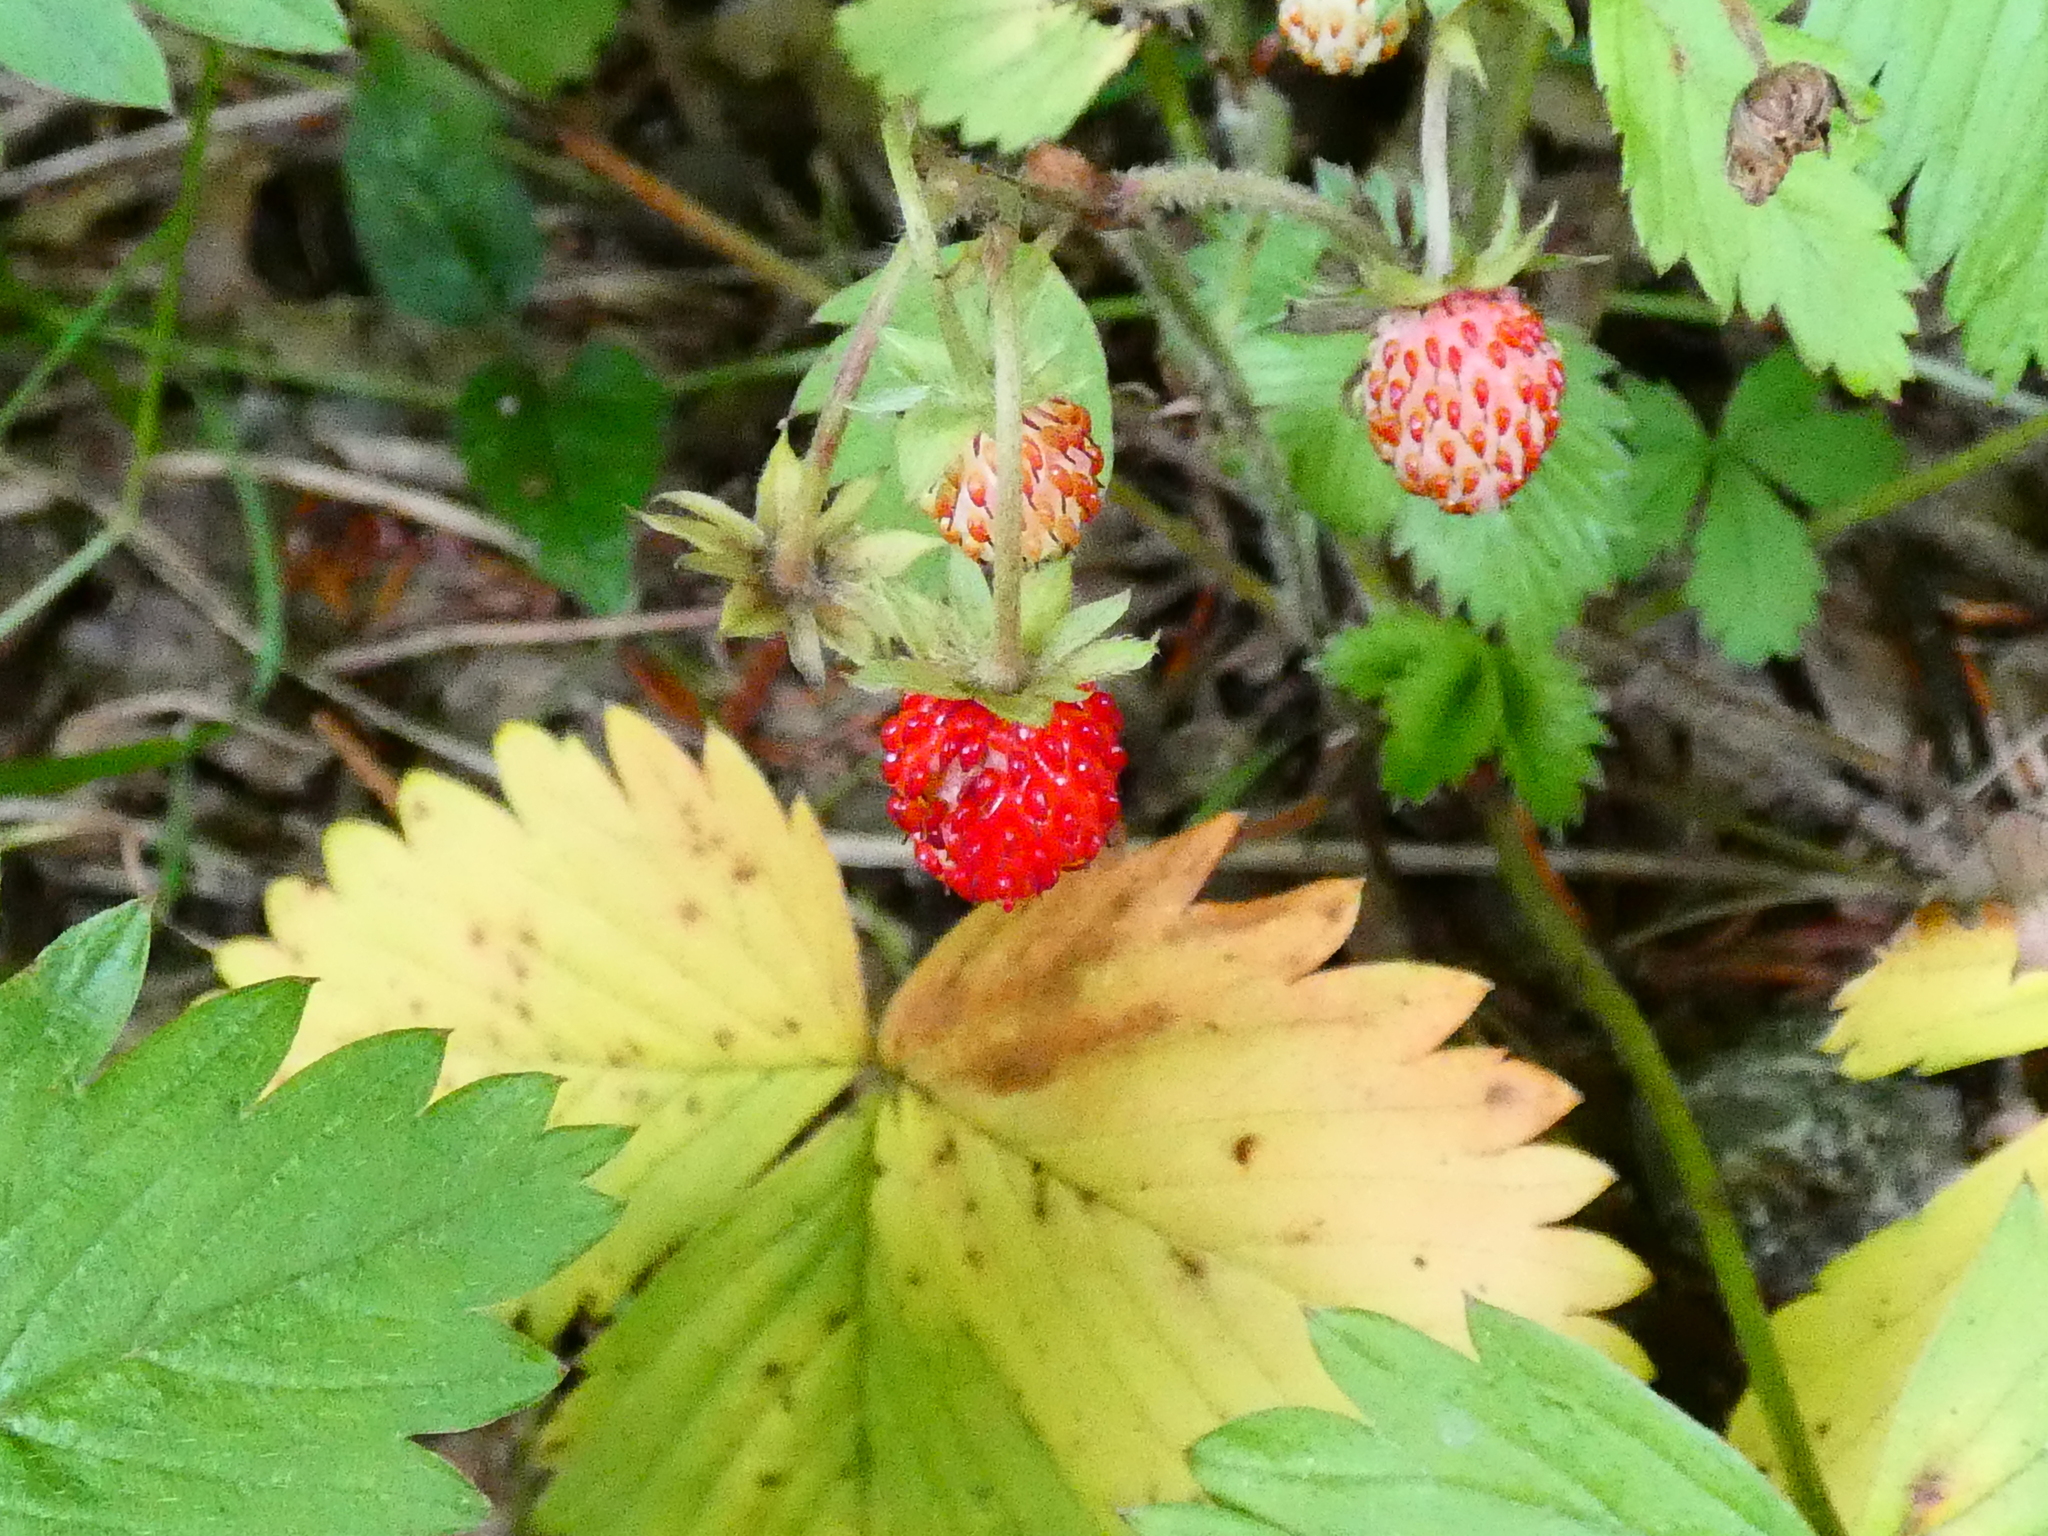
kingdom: Plantae
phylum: Tracheophyta
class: Magnoliopsida
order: Rosales
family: Rosaceae
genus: Fragaria
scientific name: Fragaria vesca
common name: Wild strawberry
